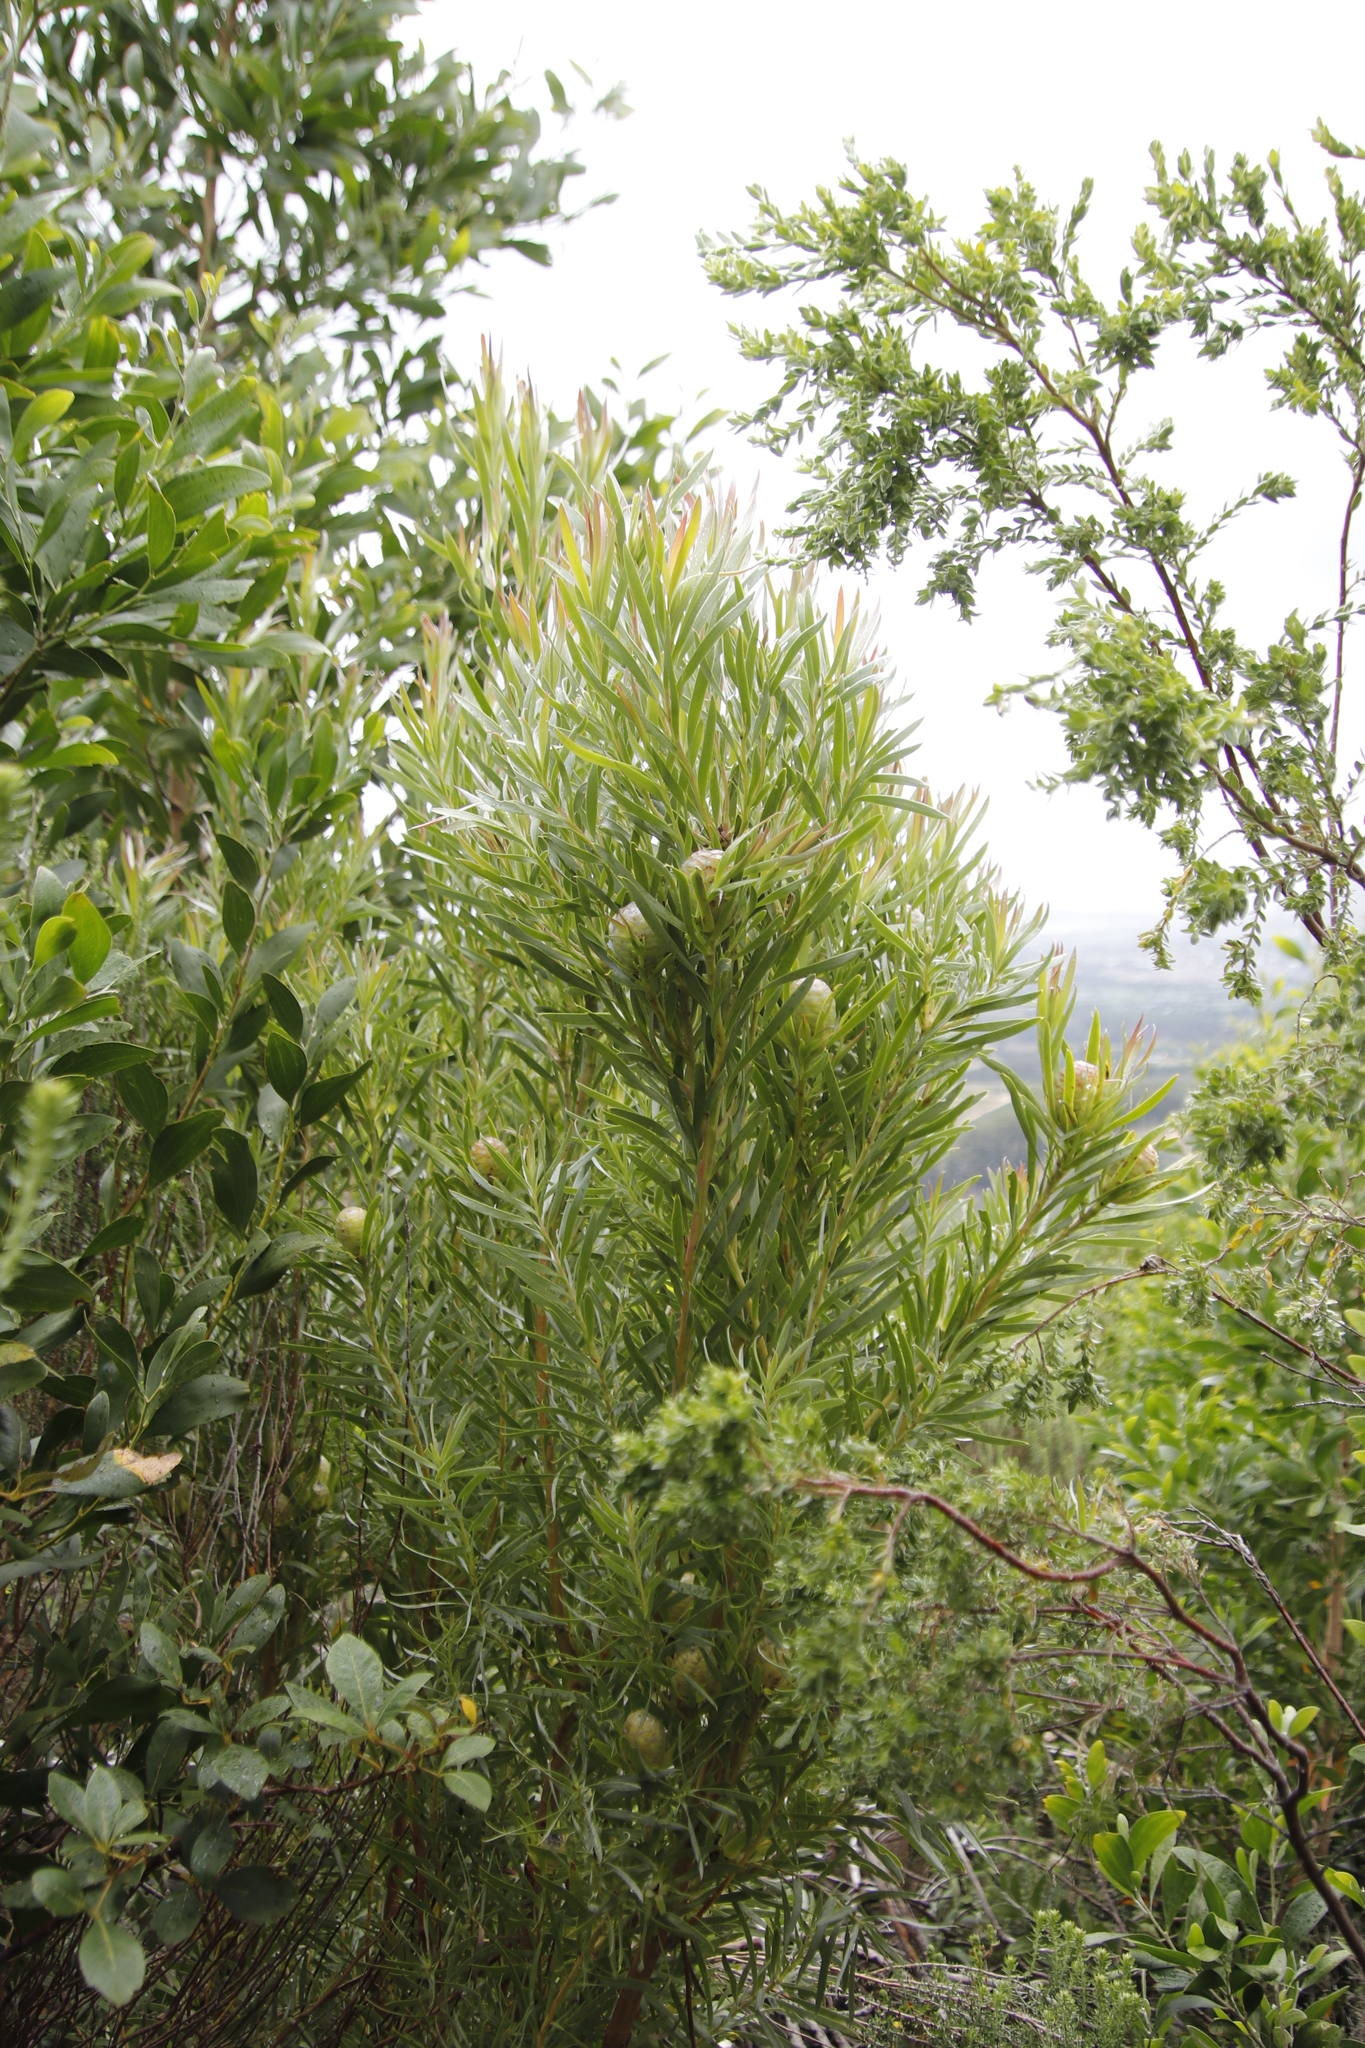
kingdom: Plantae
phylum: Tracheophyta
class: Magnoliopsida
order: Proteales
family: Proteaceae
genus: Leucadendron
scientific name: Leucadendron xanthoconus
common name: Sickle-leaf conebush
